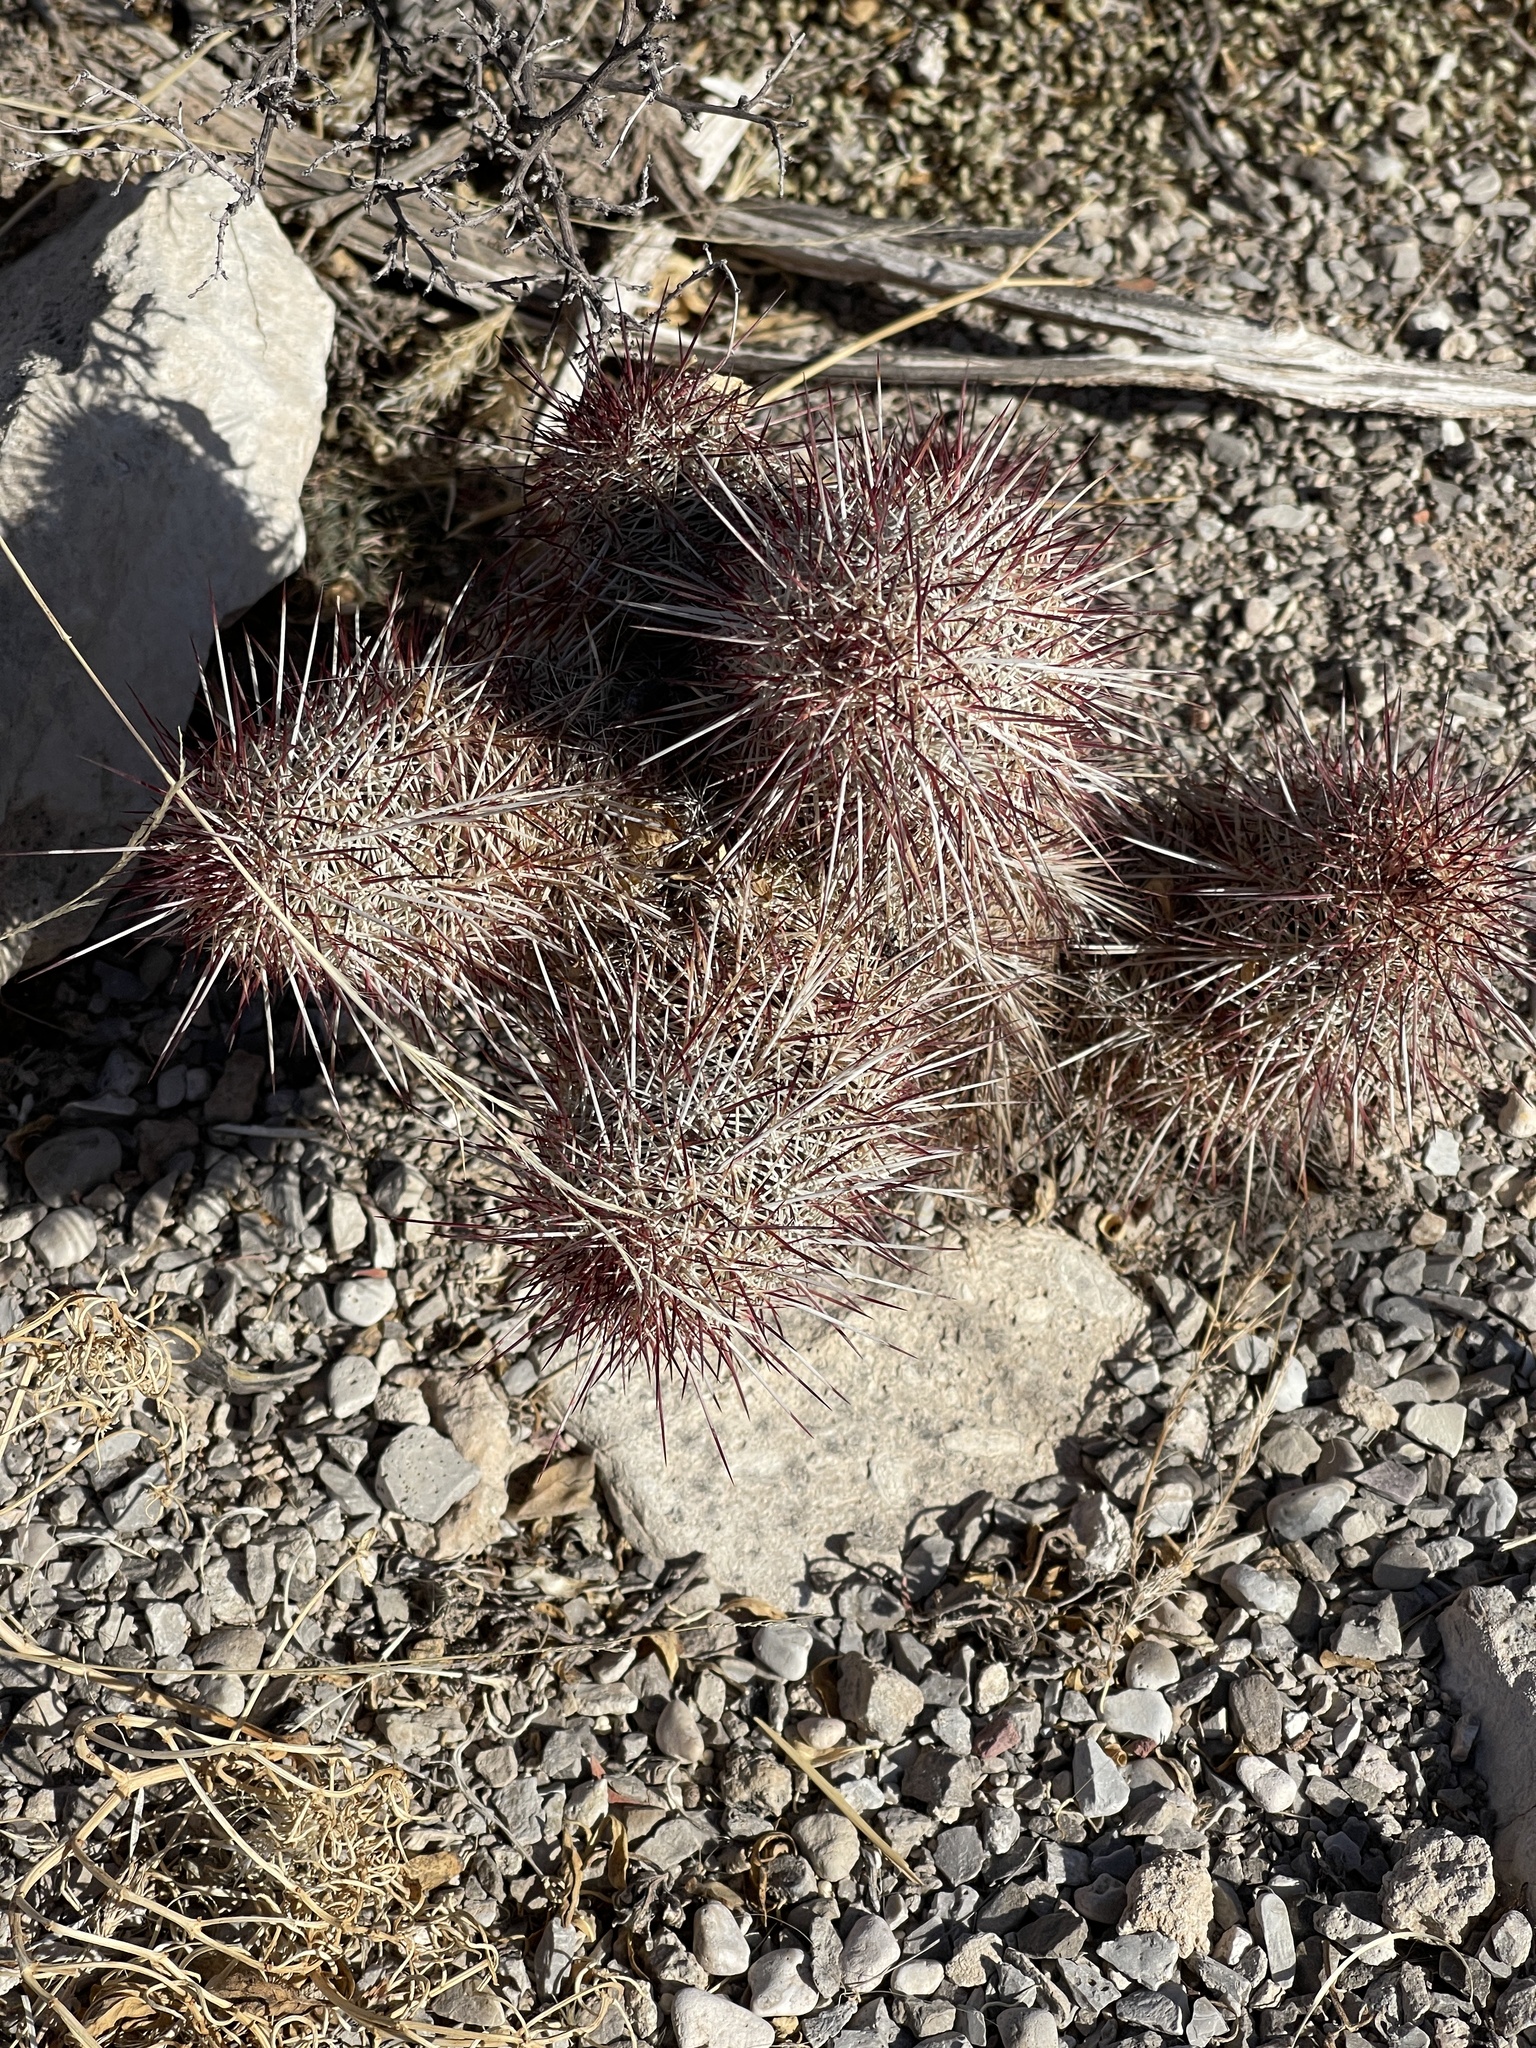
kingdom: Plantae
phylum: Tracheophyta
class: Magnoliopsida
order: Caryophyllales
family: Cactaceae
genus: Echinocereus
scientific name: Echinocereus viridiflorus
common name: Nylon hedgehog cactus
